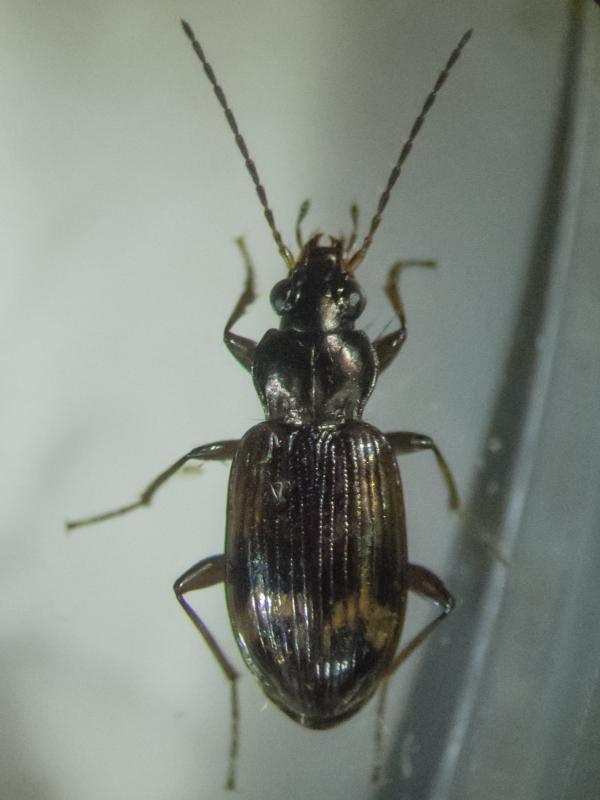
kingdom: Animalia
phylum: Arthropoda
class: Insecta
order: Coleoptera
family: Carabidae
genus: Bembidion
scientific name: Bembidion dentellum
